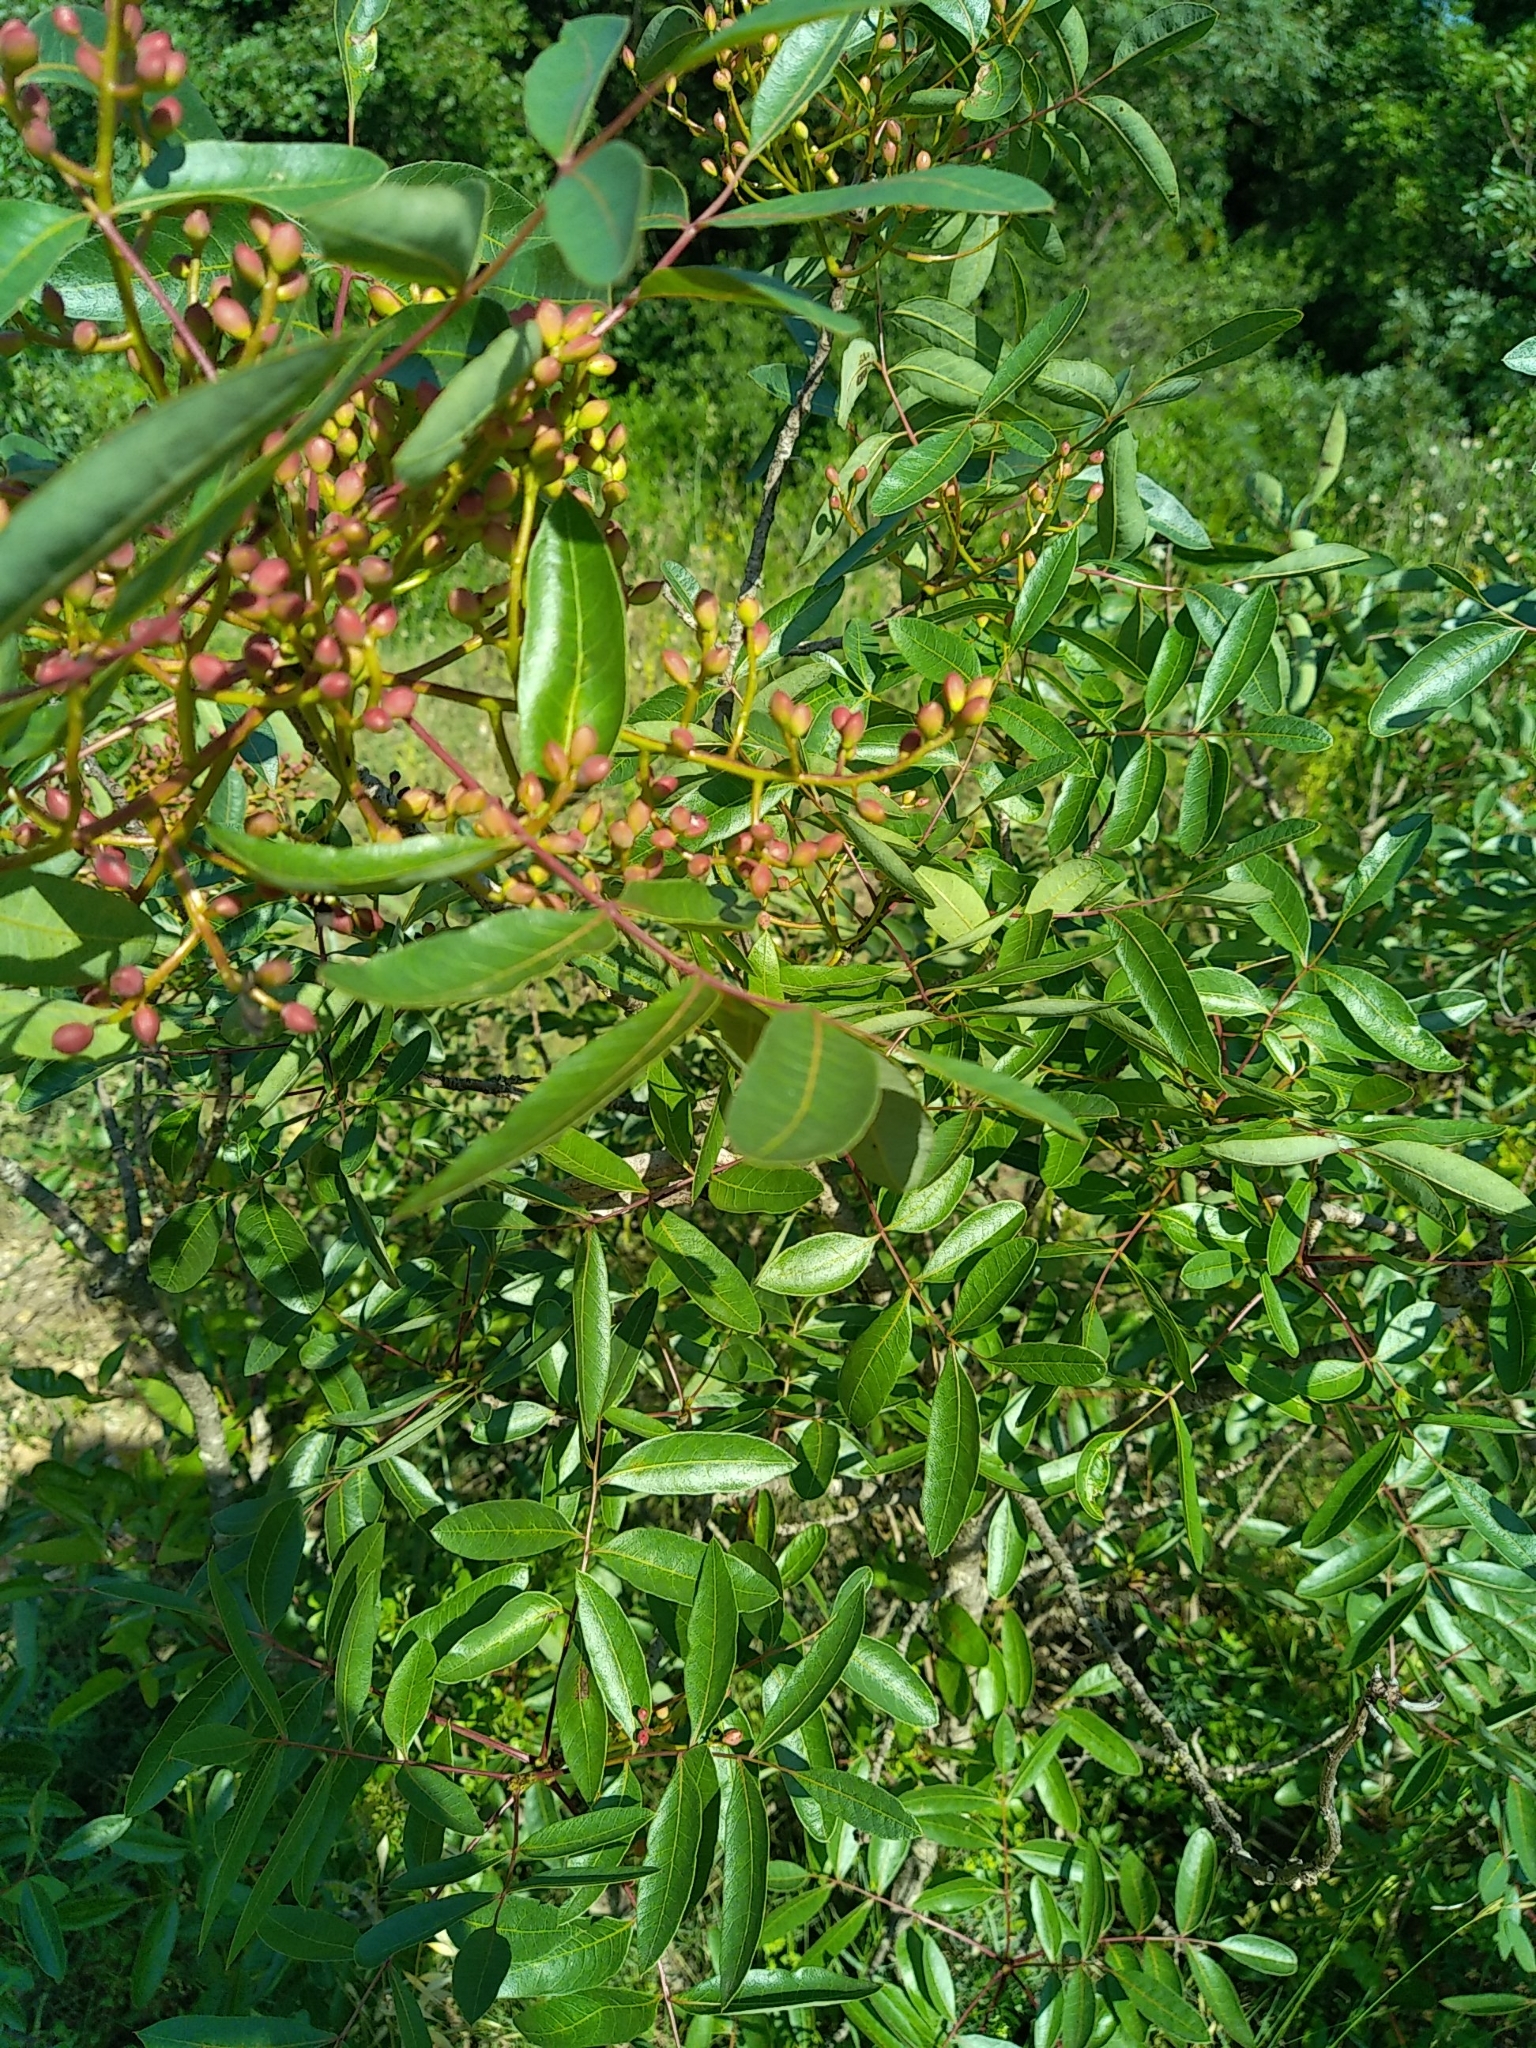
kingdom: Plantae
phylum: Tracheophyta
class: Magnoliopsida
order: Sapindales
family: Anacardiaceae
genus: Pistacia
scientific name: Pistacia terebinthus
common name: Terebinth
